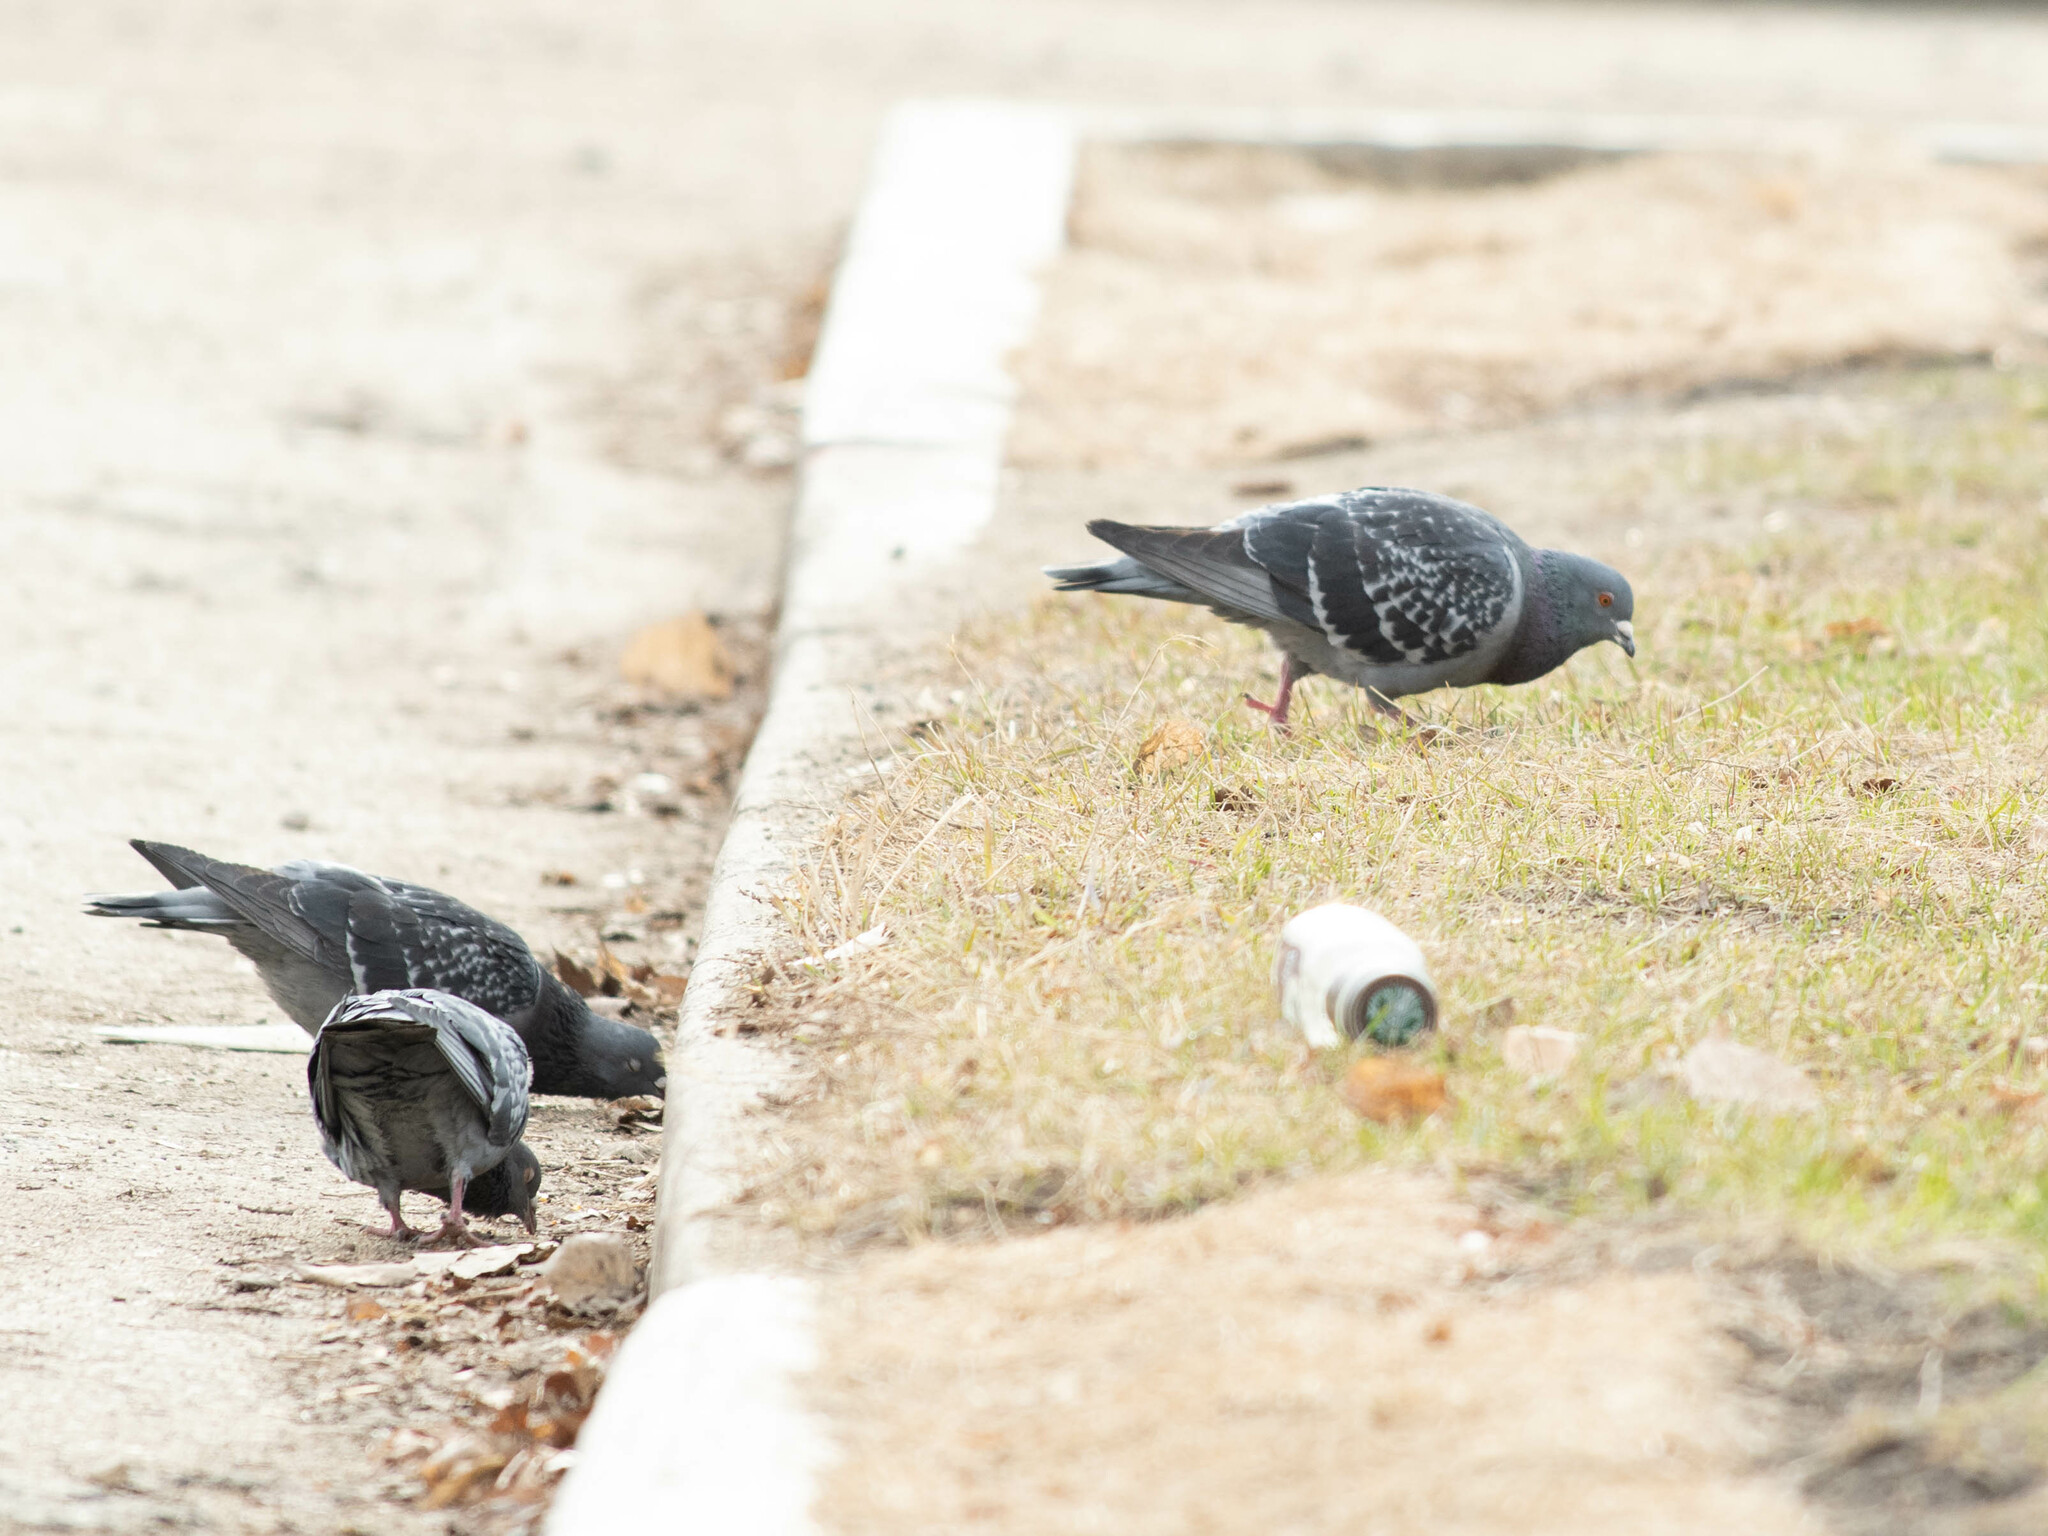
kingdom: Animalia
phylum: Chordata
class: Aves
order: Columbiformes
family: Columbidae
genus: Columba
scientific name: Columba livia
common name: Rock pigeon
